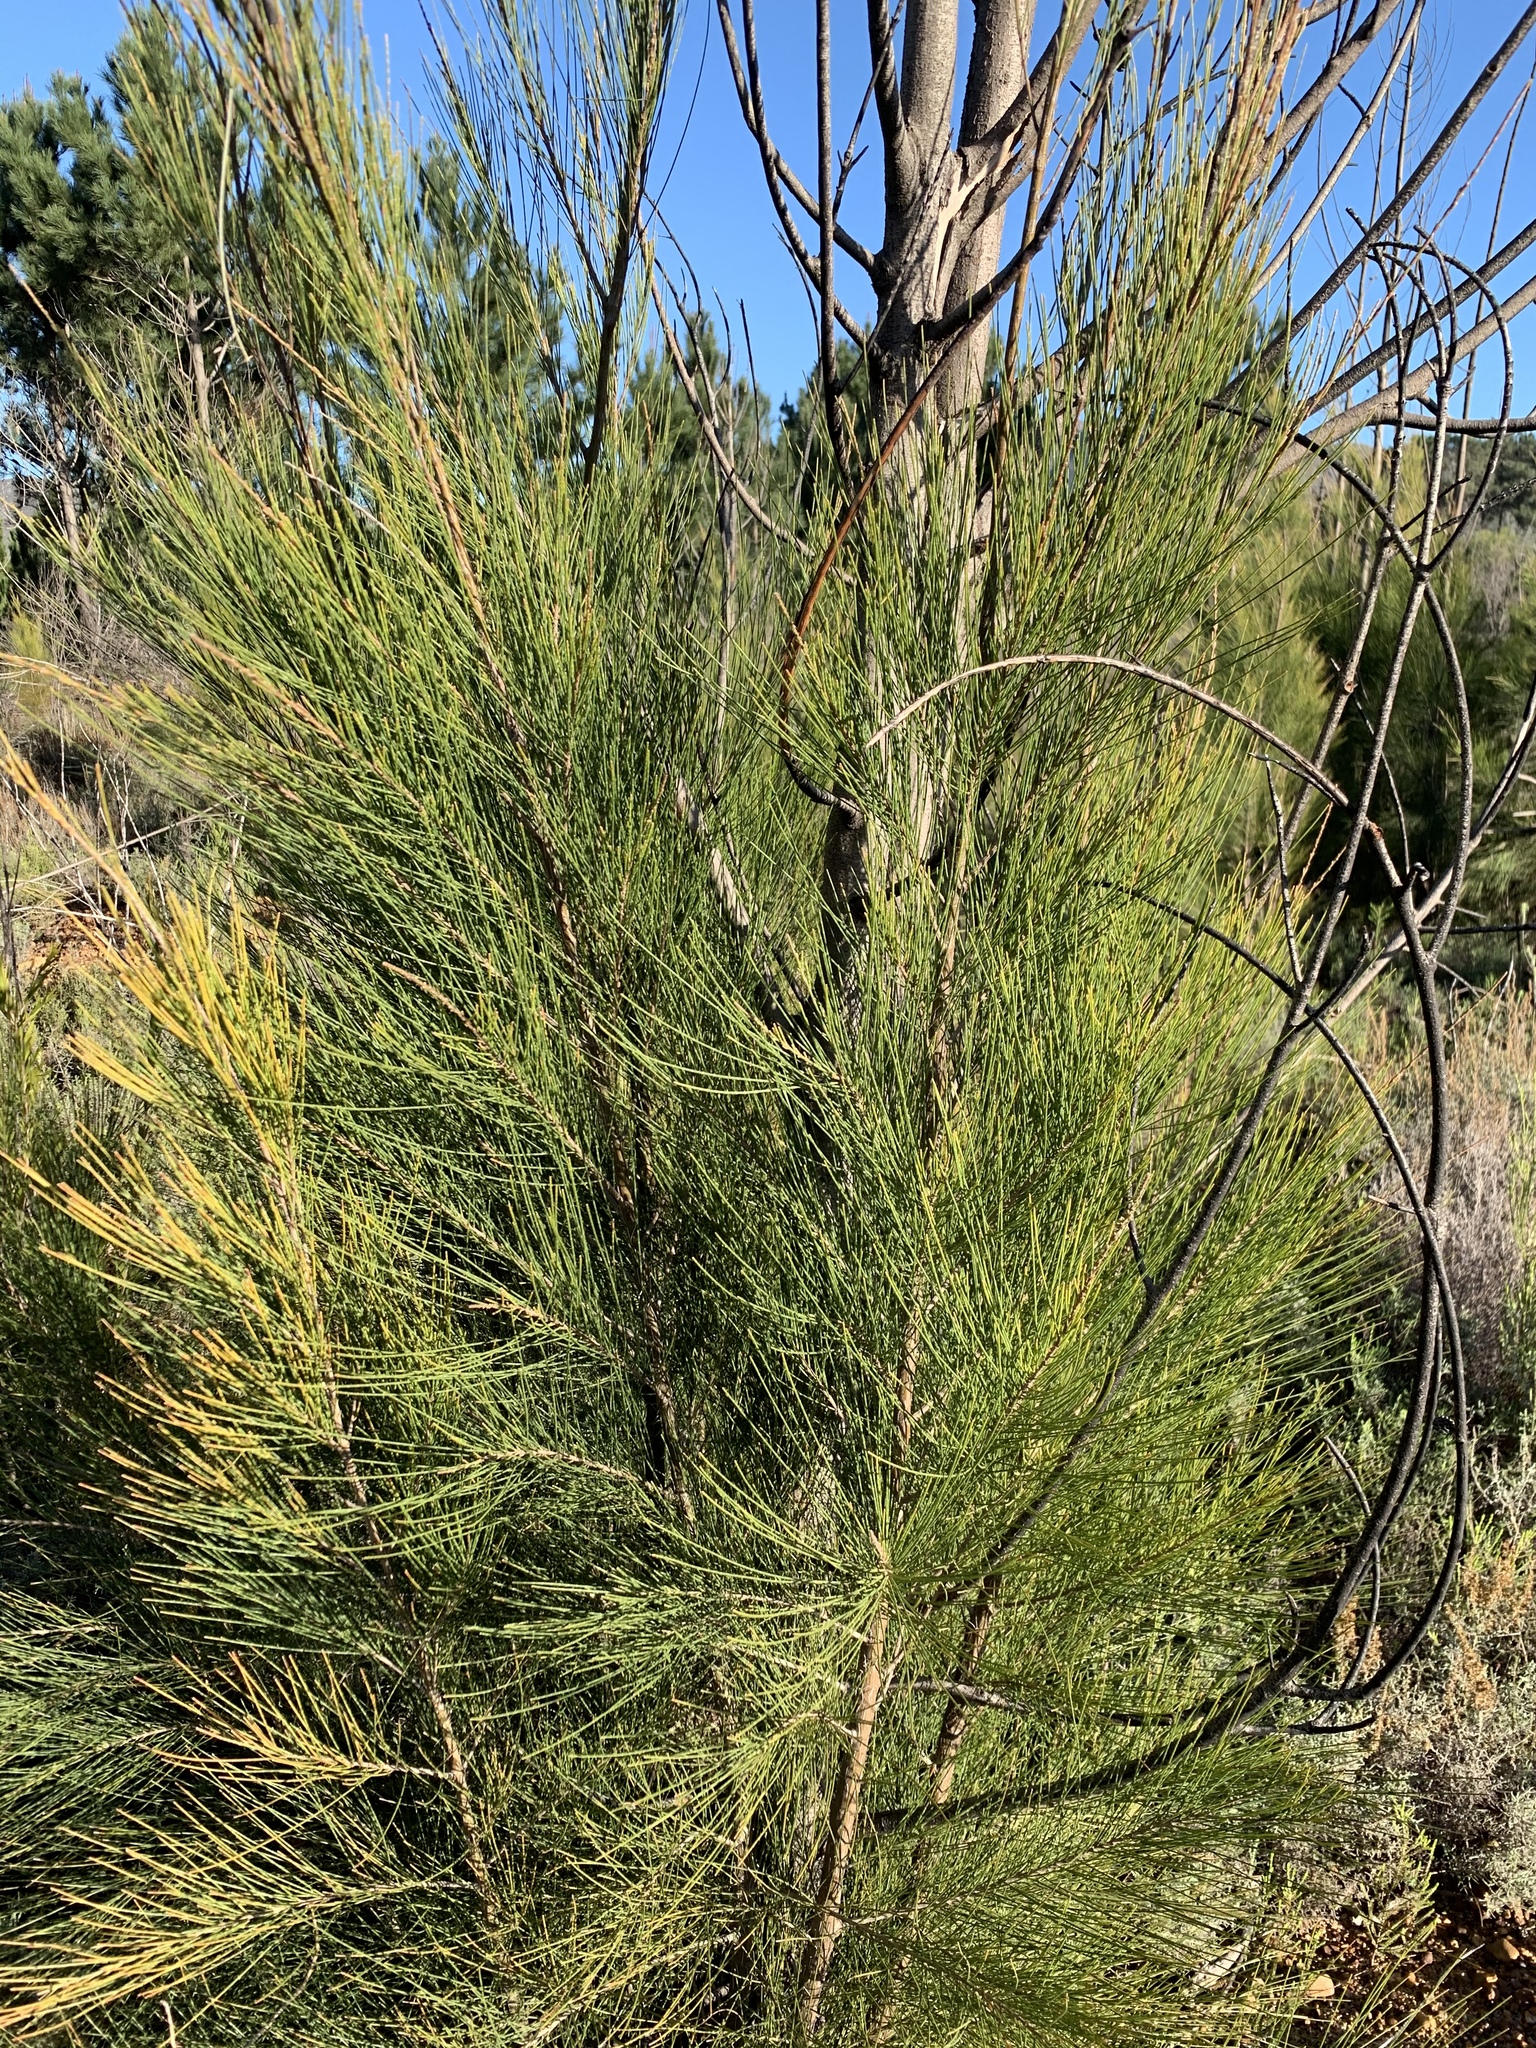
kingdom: Plantae
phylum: Tracheophyta
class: Magnoliopsida
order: Fagales
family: Casuarinaceae
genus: Casuarina
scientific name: Casuarina cunninghamiana
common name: River sheoak
